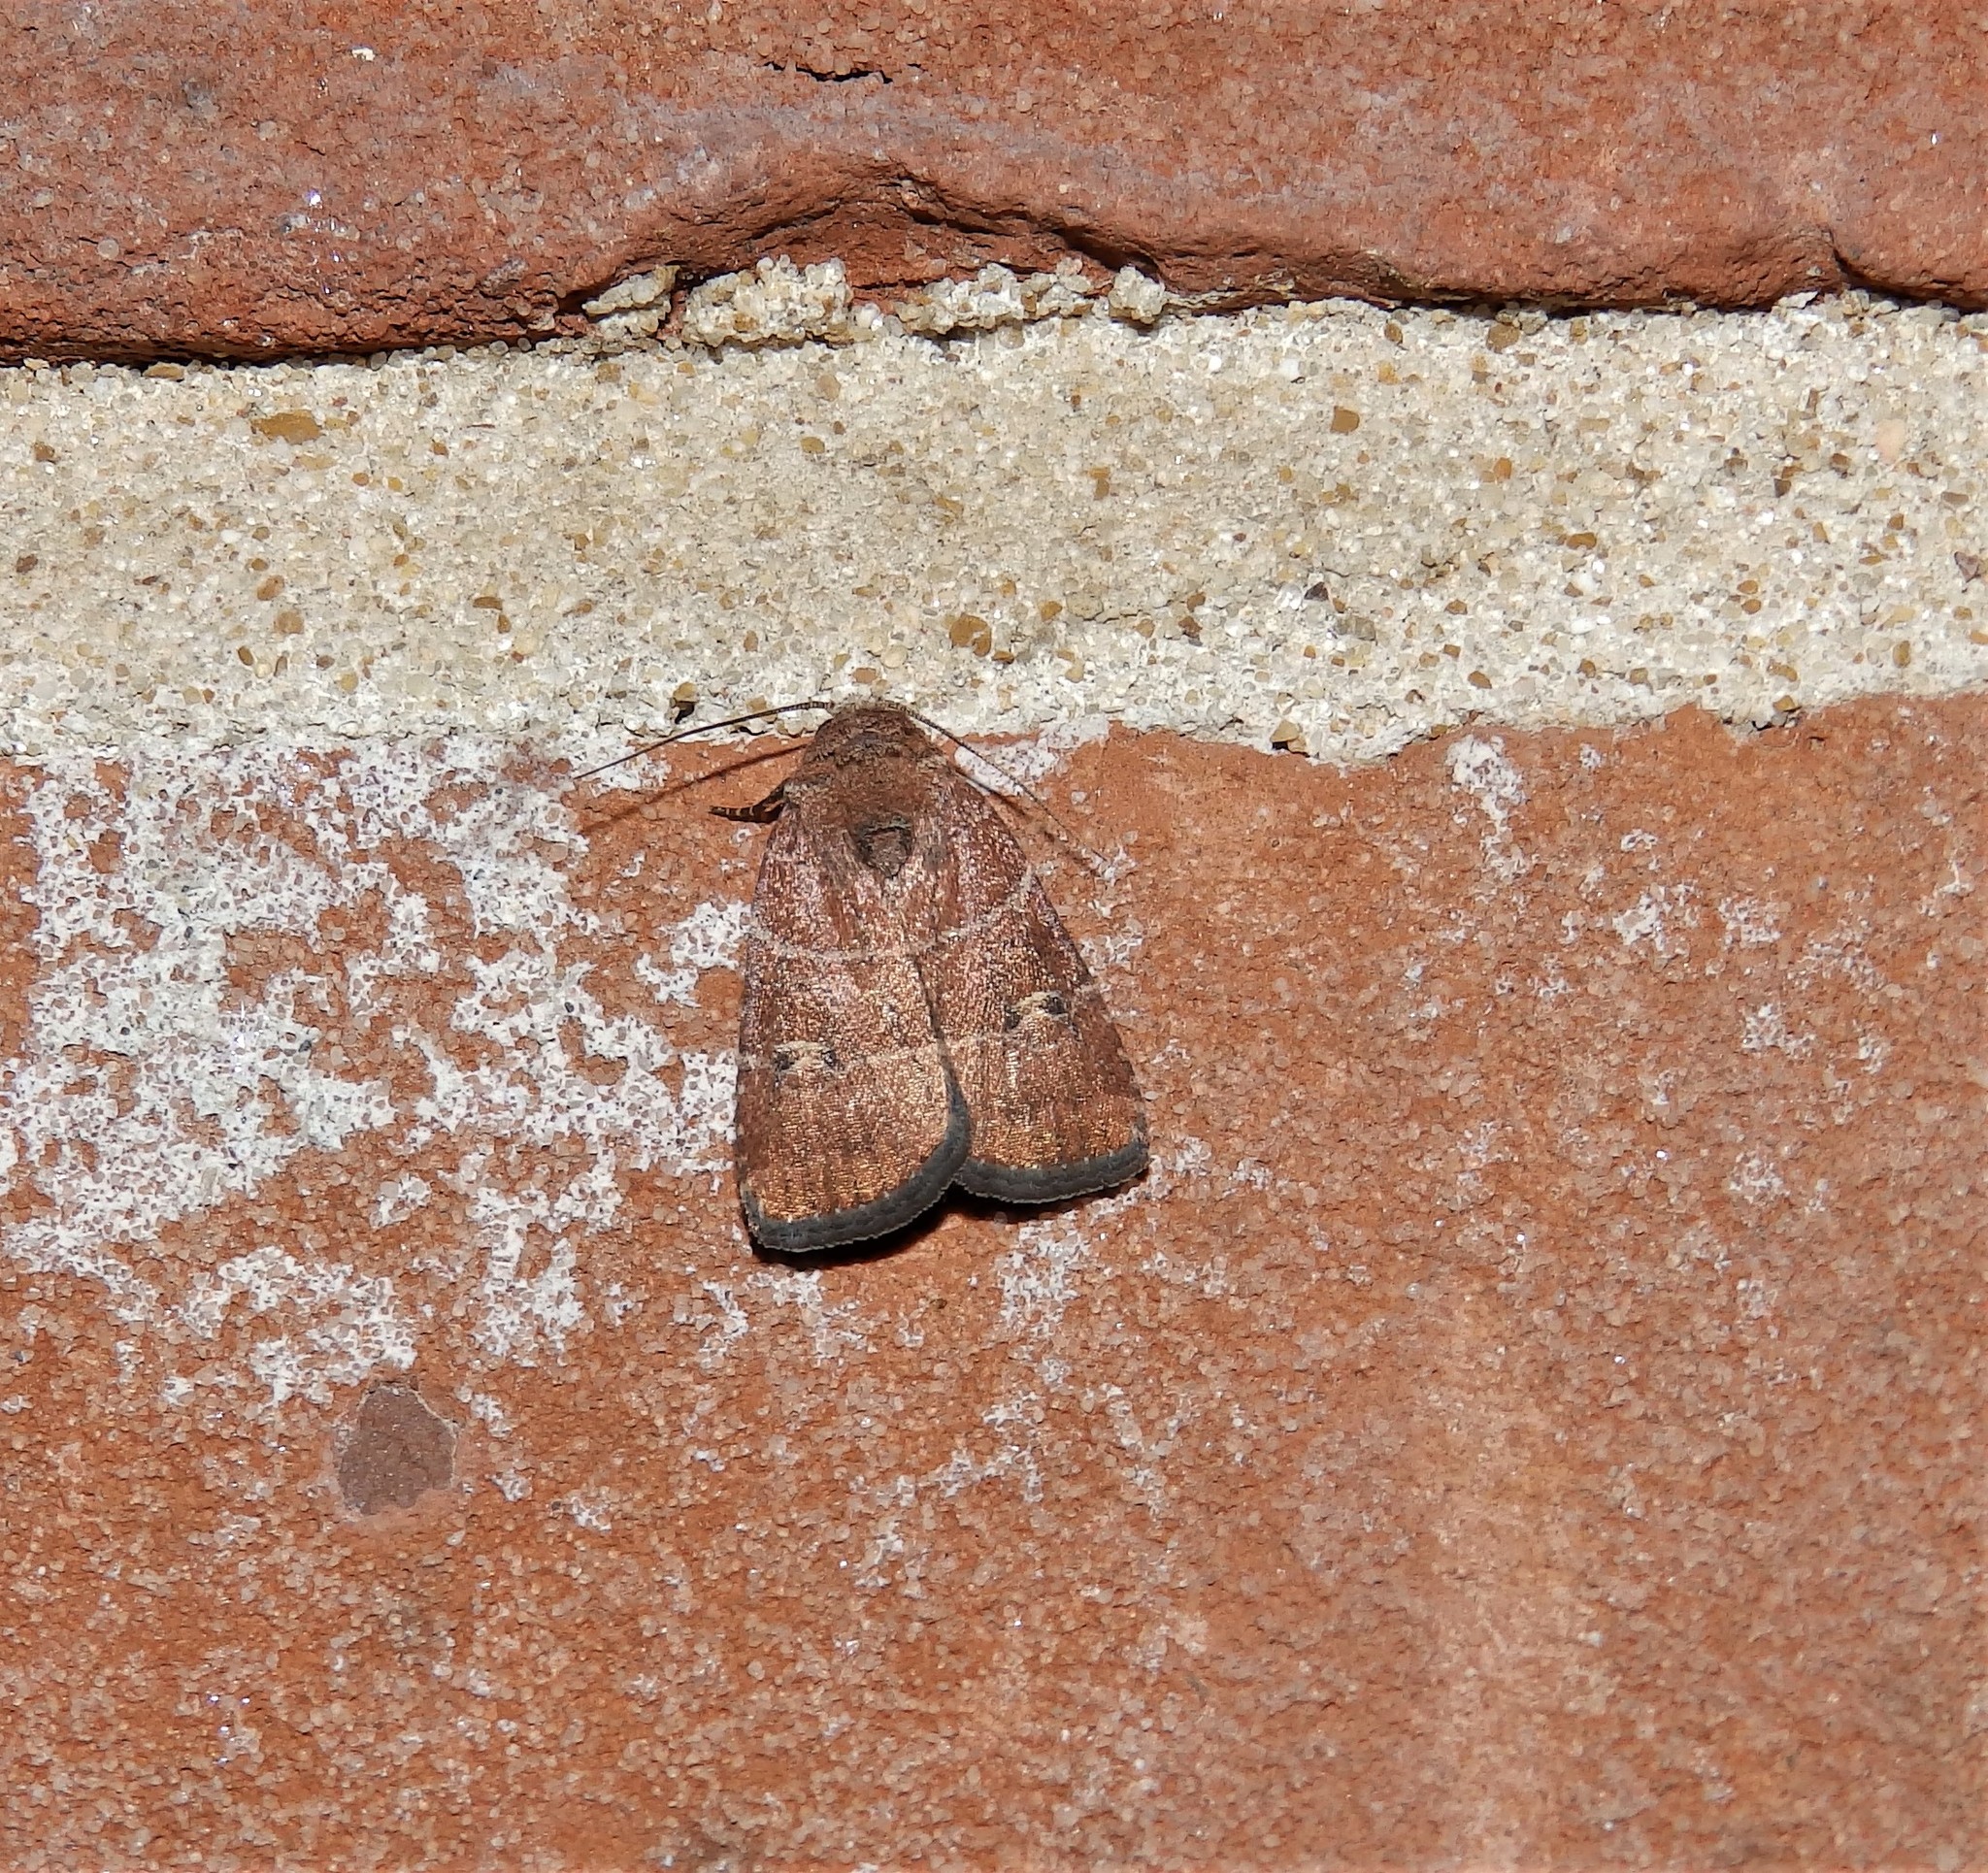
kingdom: Animalia
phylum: Arthropoda
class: Insecta
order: Lepidoptera
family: Noctuidae
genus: Elaphria
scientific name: Elaphria grata
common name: Grateful midget moth
